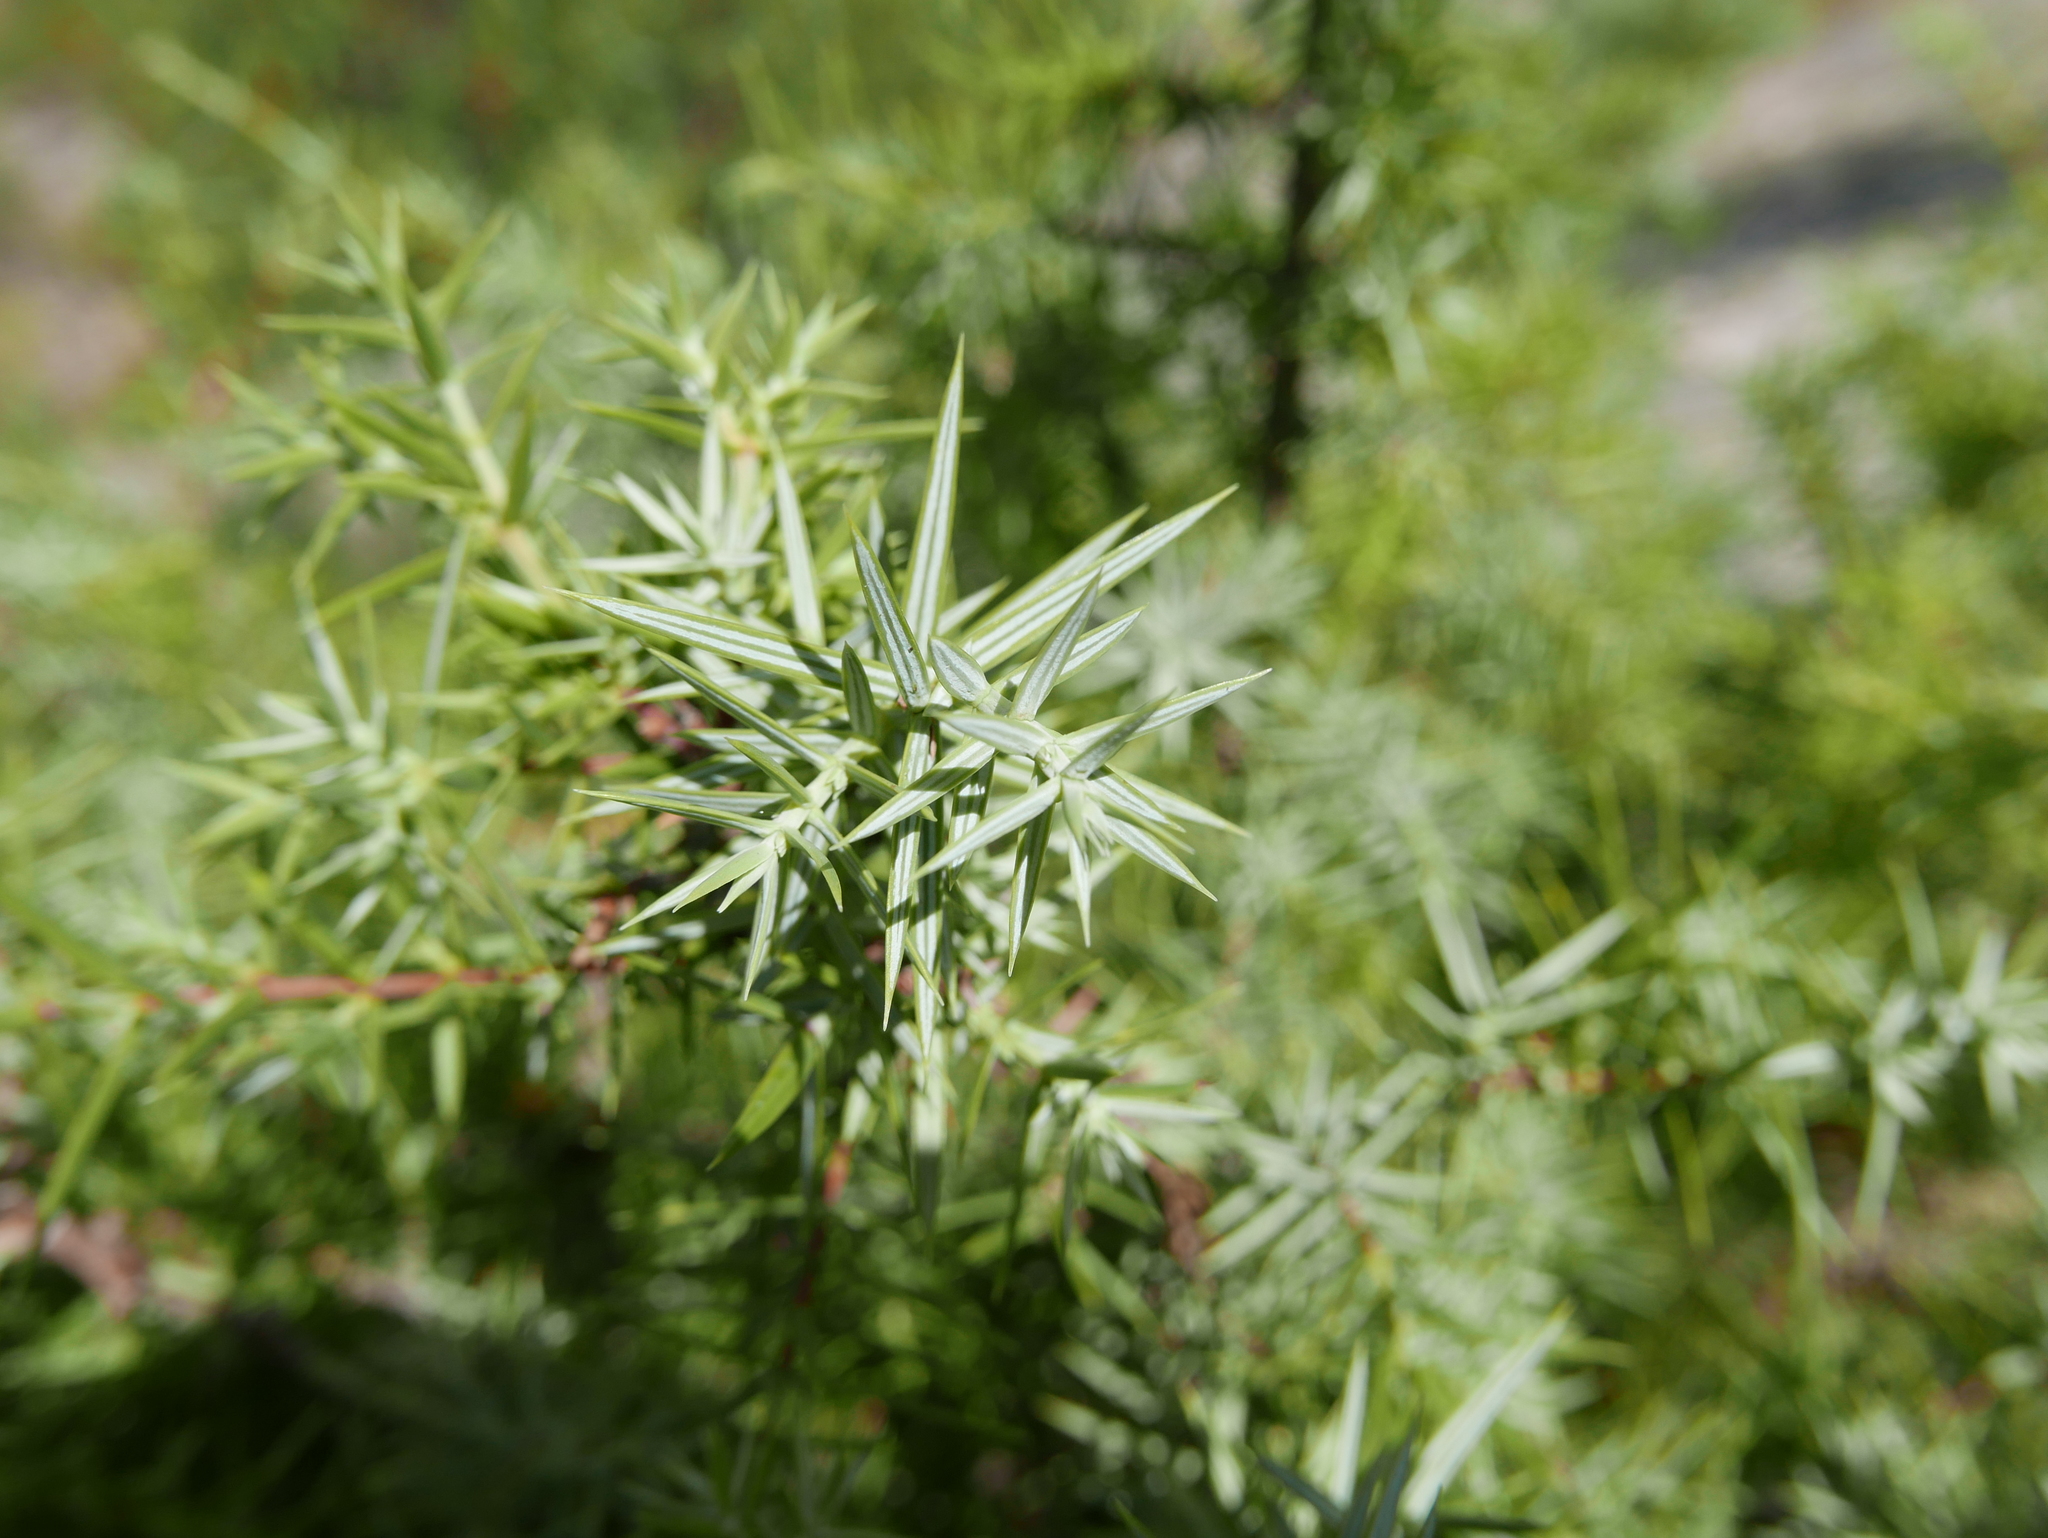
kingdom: Plantae
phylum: Tracheophyta
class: Pinopsida
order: Pinales
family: Cupressaceae
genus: Juniperus
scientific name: Juniperus oxycedrus
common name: Prickly juniper
